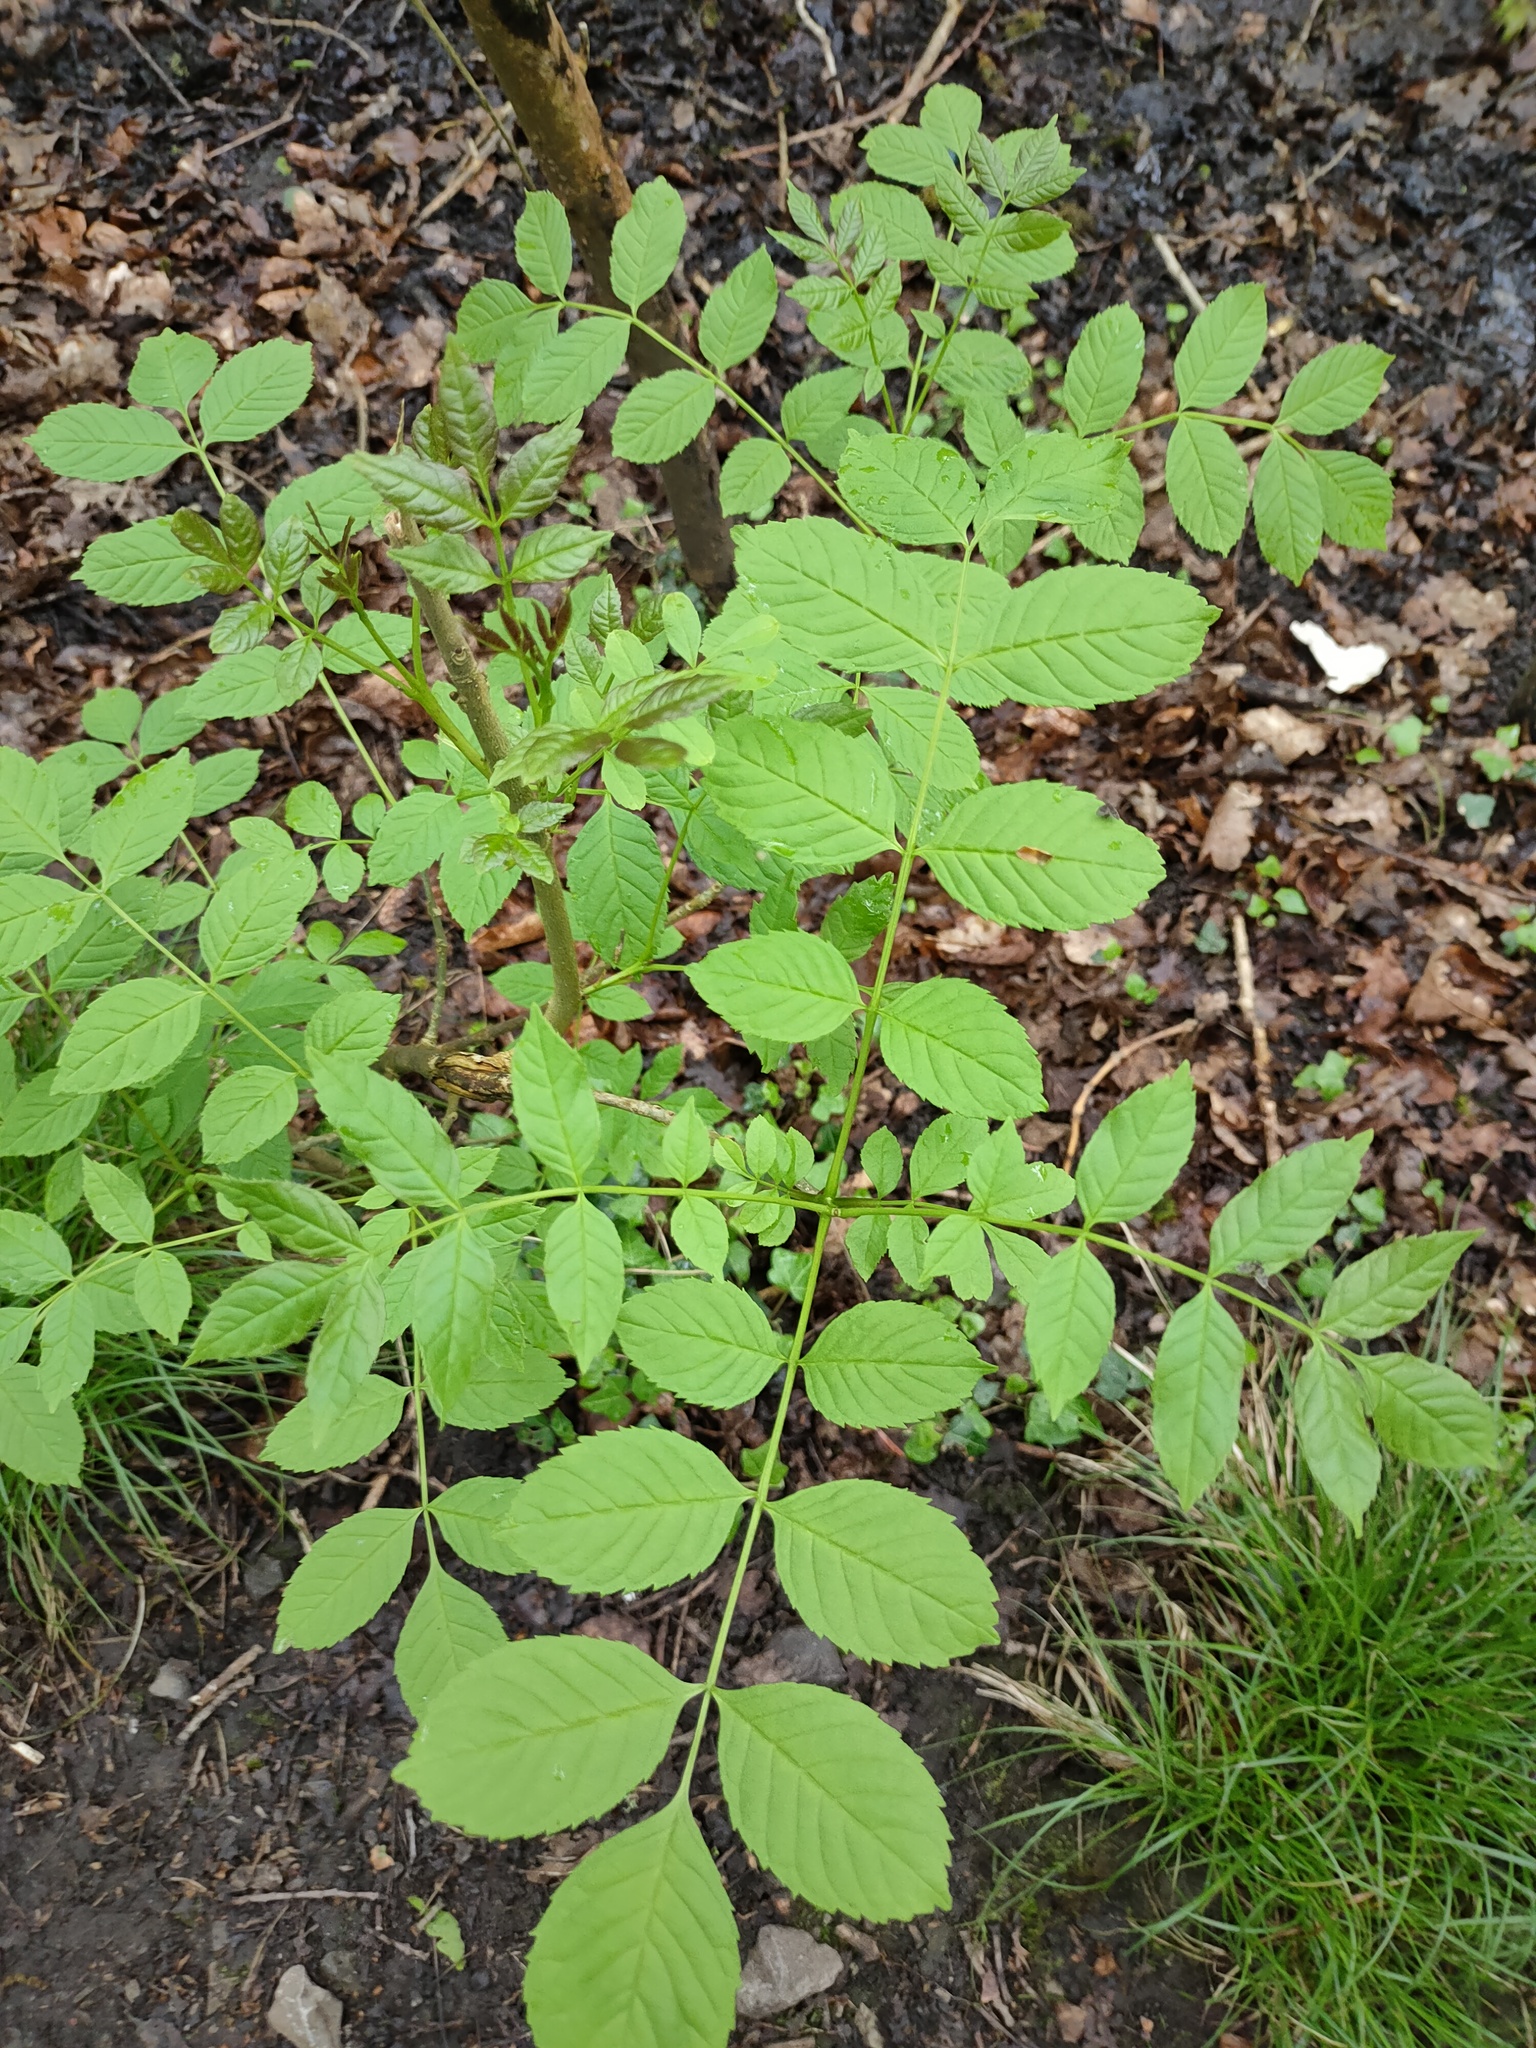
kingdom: Plantae
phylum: Tracheophyta
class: Magnoliopsida
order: Lamiales
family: Oleaceae
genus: Fraxinus
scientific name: Fraxinus excelsior
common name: European ash
